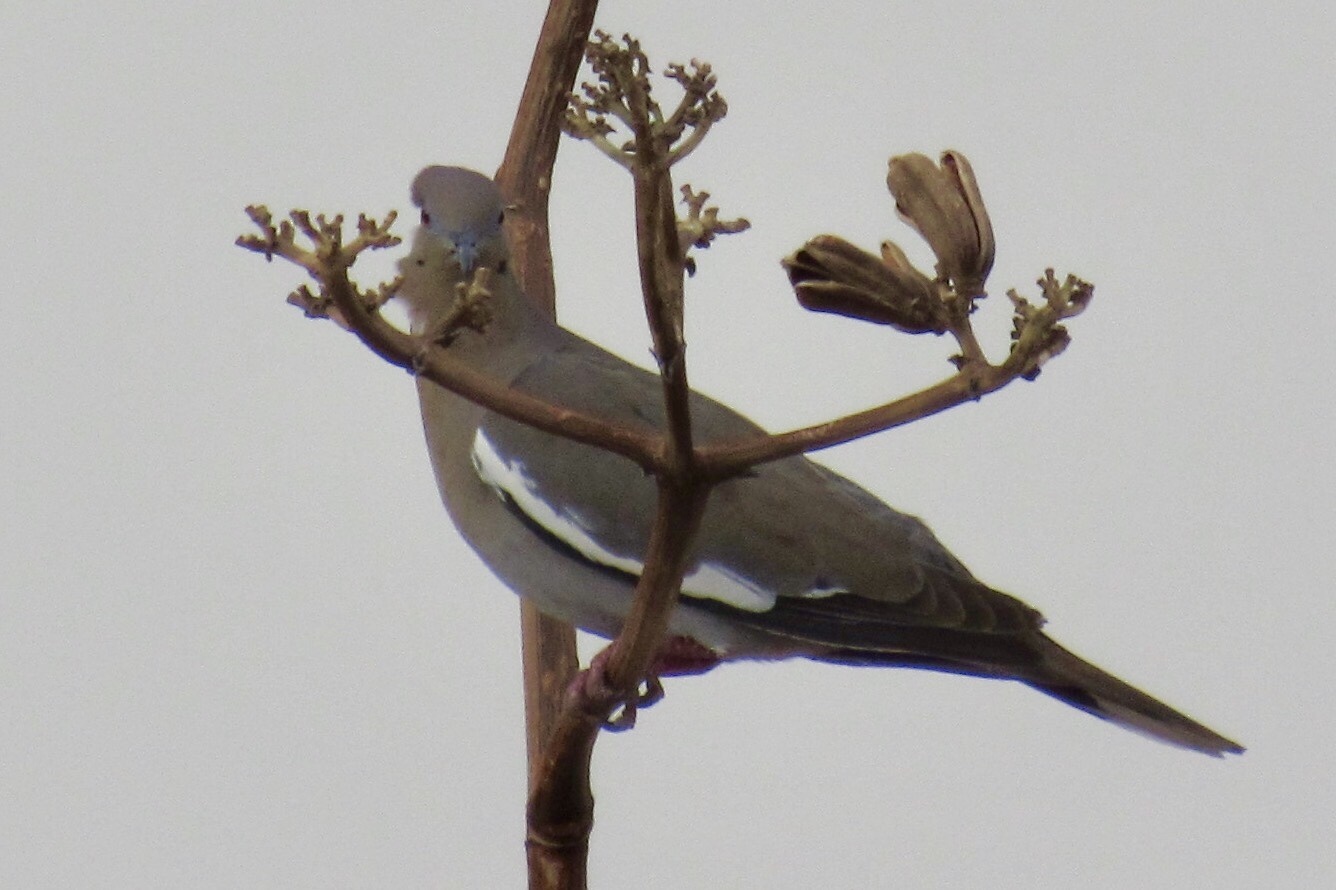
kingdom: Animalia
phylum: Chordata
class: Aves
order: Columbiformes
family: Columbidae
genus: Zenaida
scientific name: Zenaida asiatica
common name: White-winged dove
